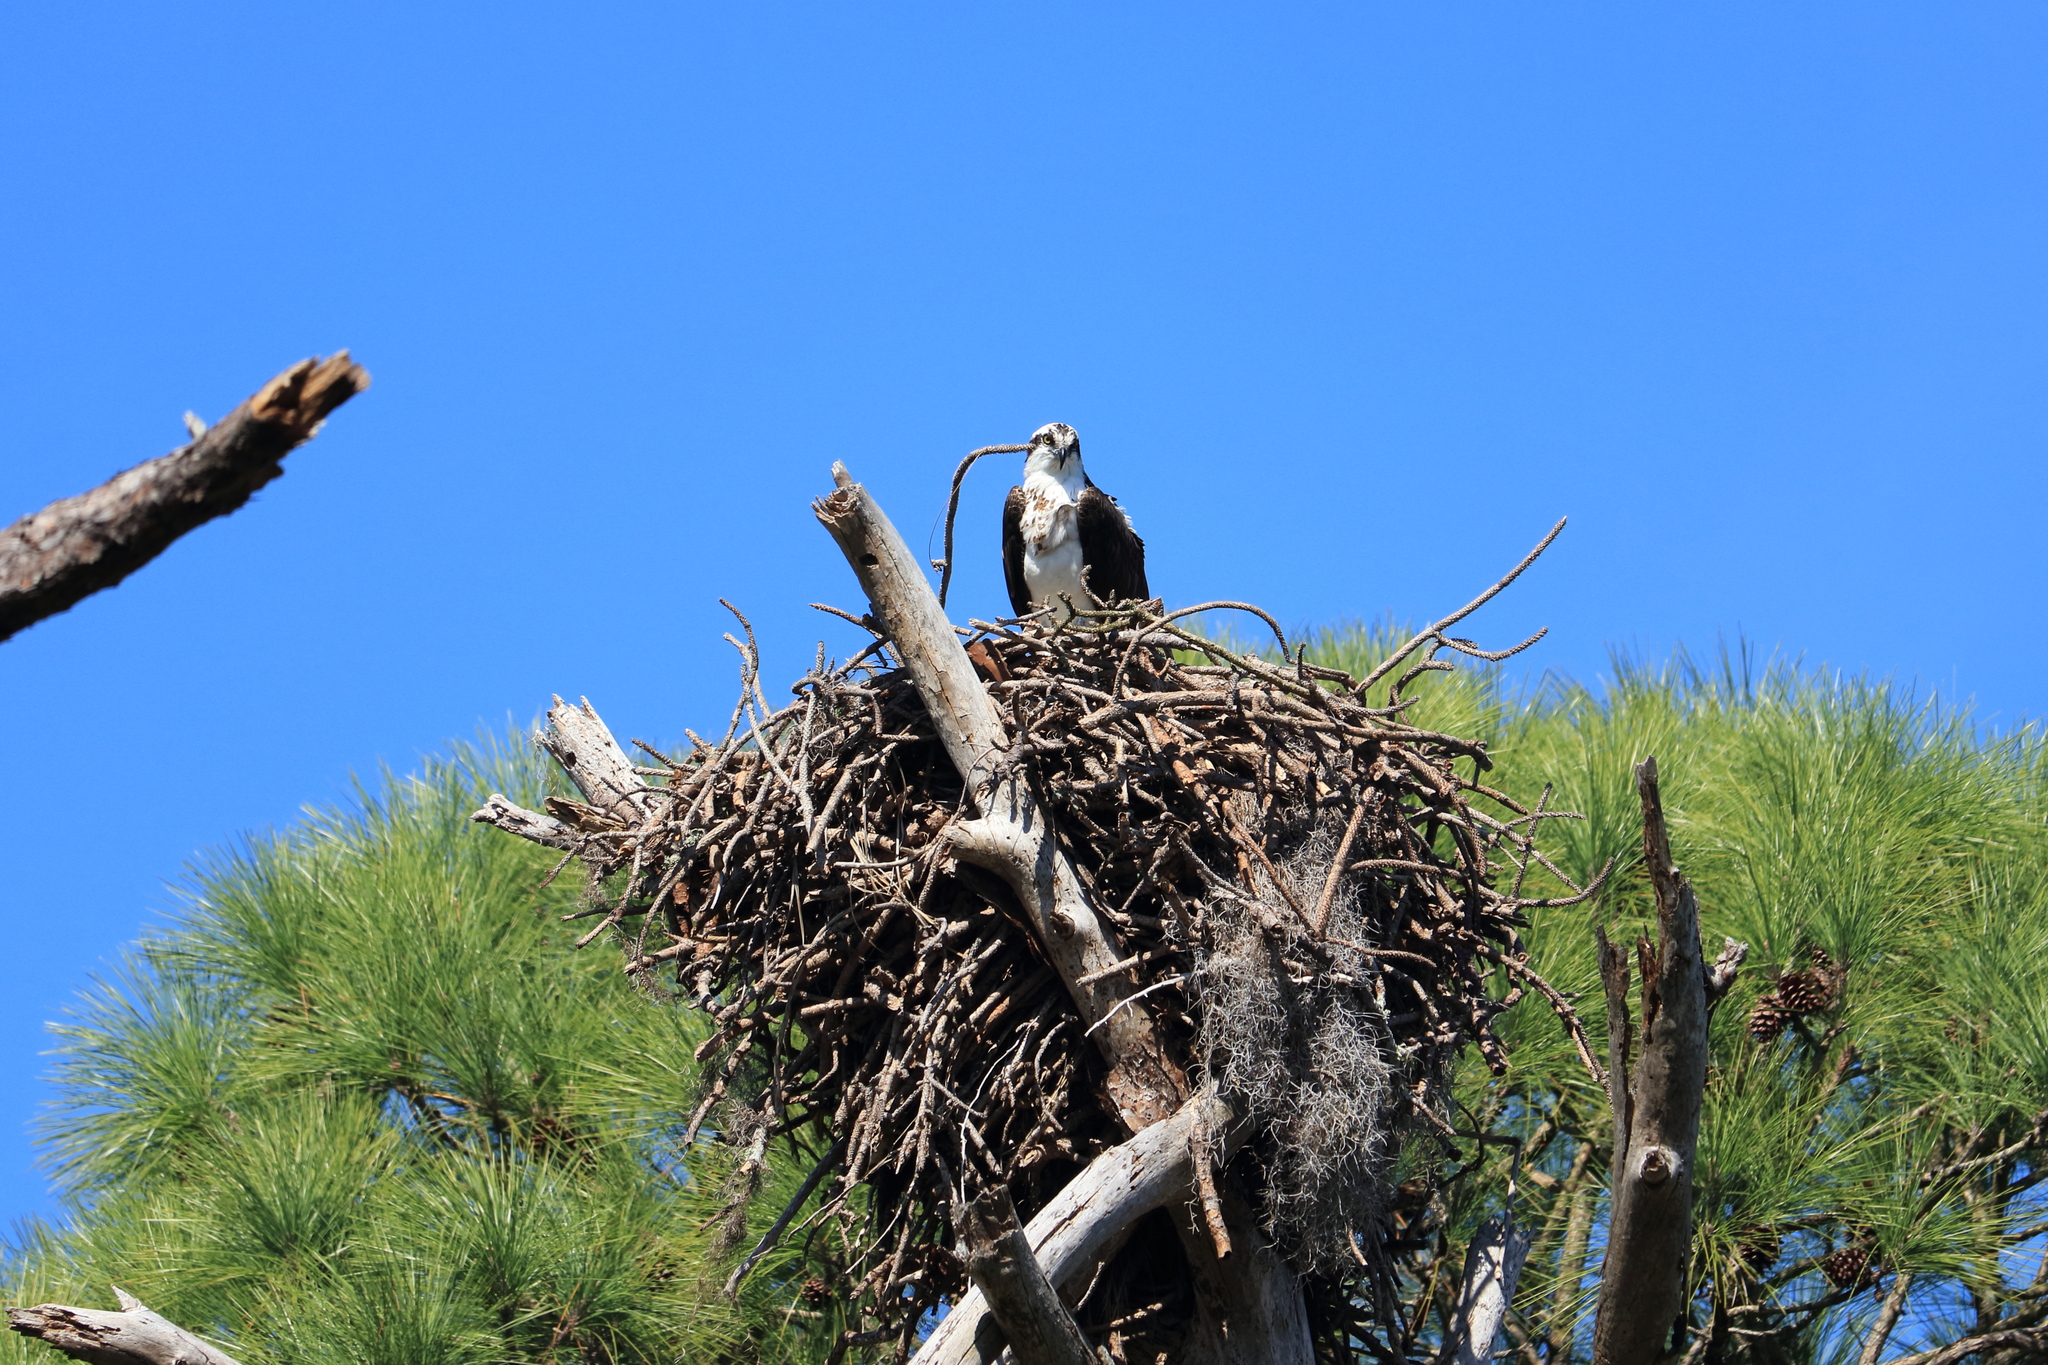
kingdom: Animalia
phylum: Chordata
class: Aves
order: Accipitriformes
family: Pandionidae
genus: Pandion
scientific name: Pandion haliaetus
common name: Osprey
